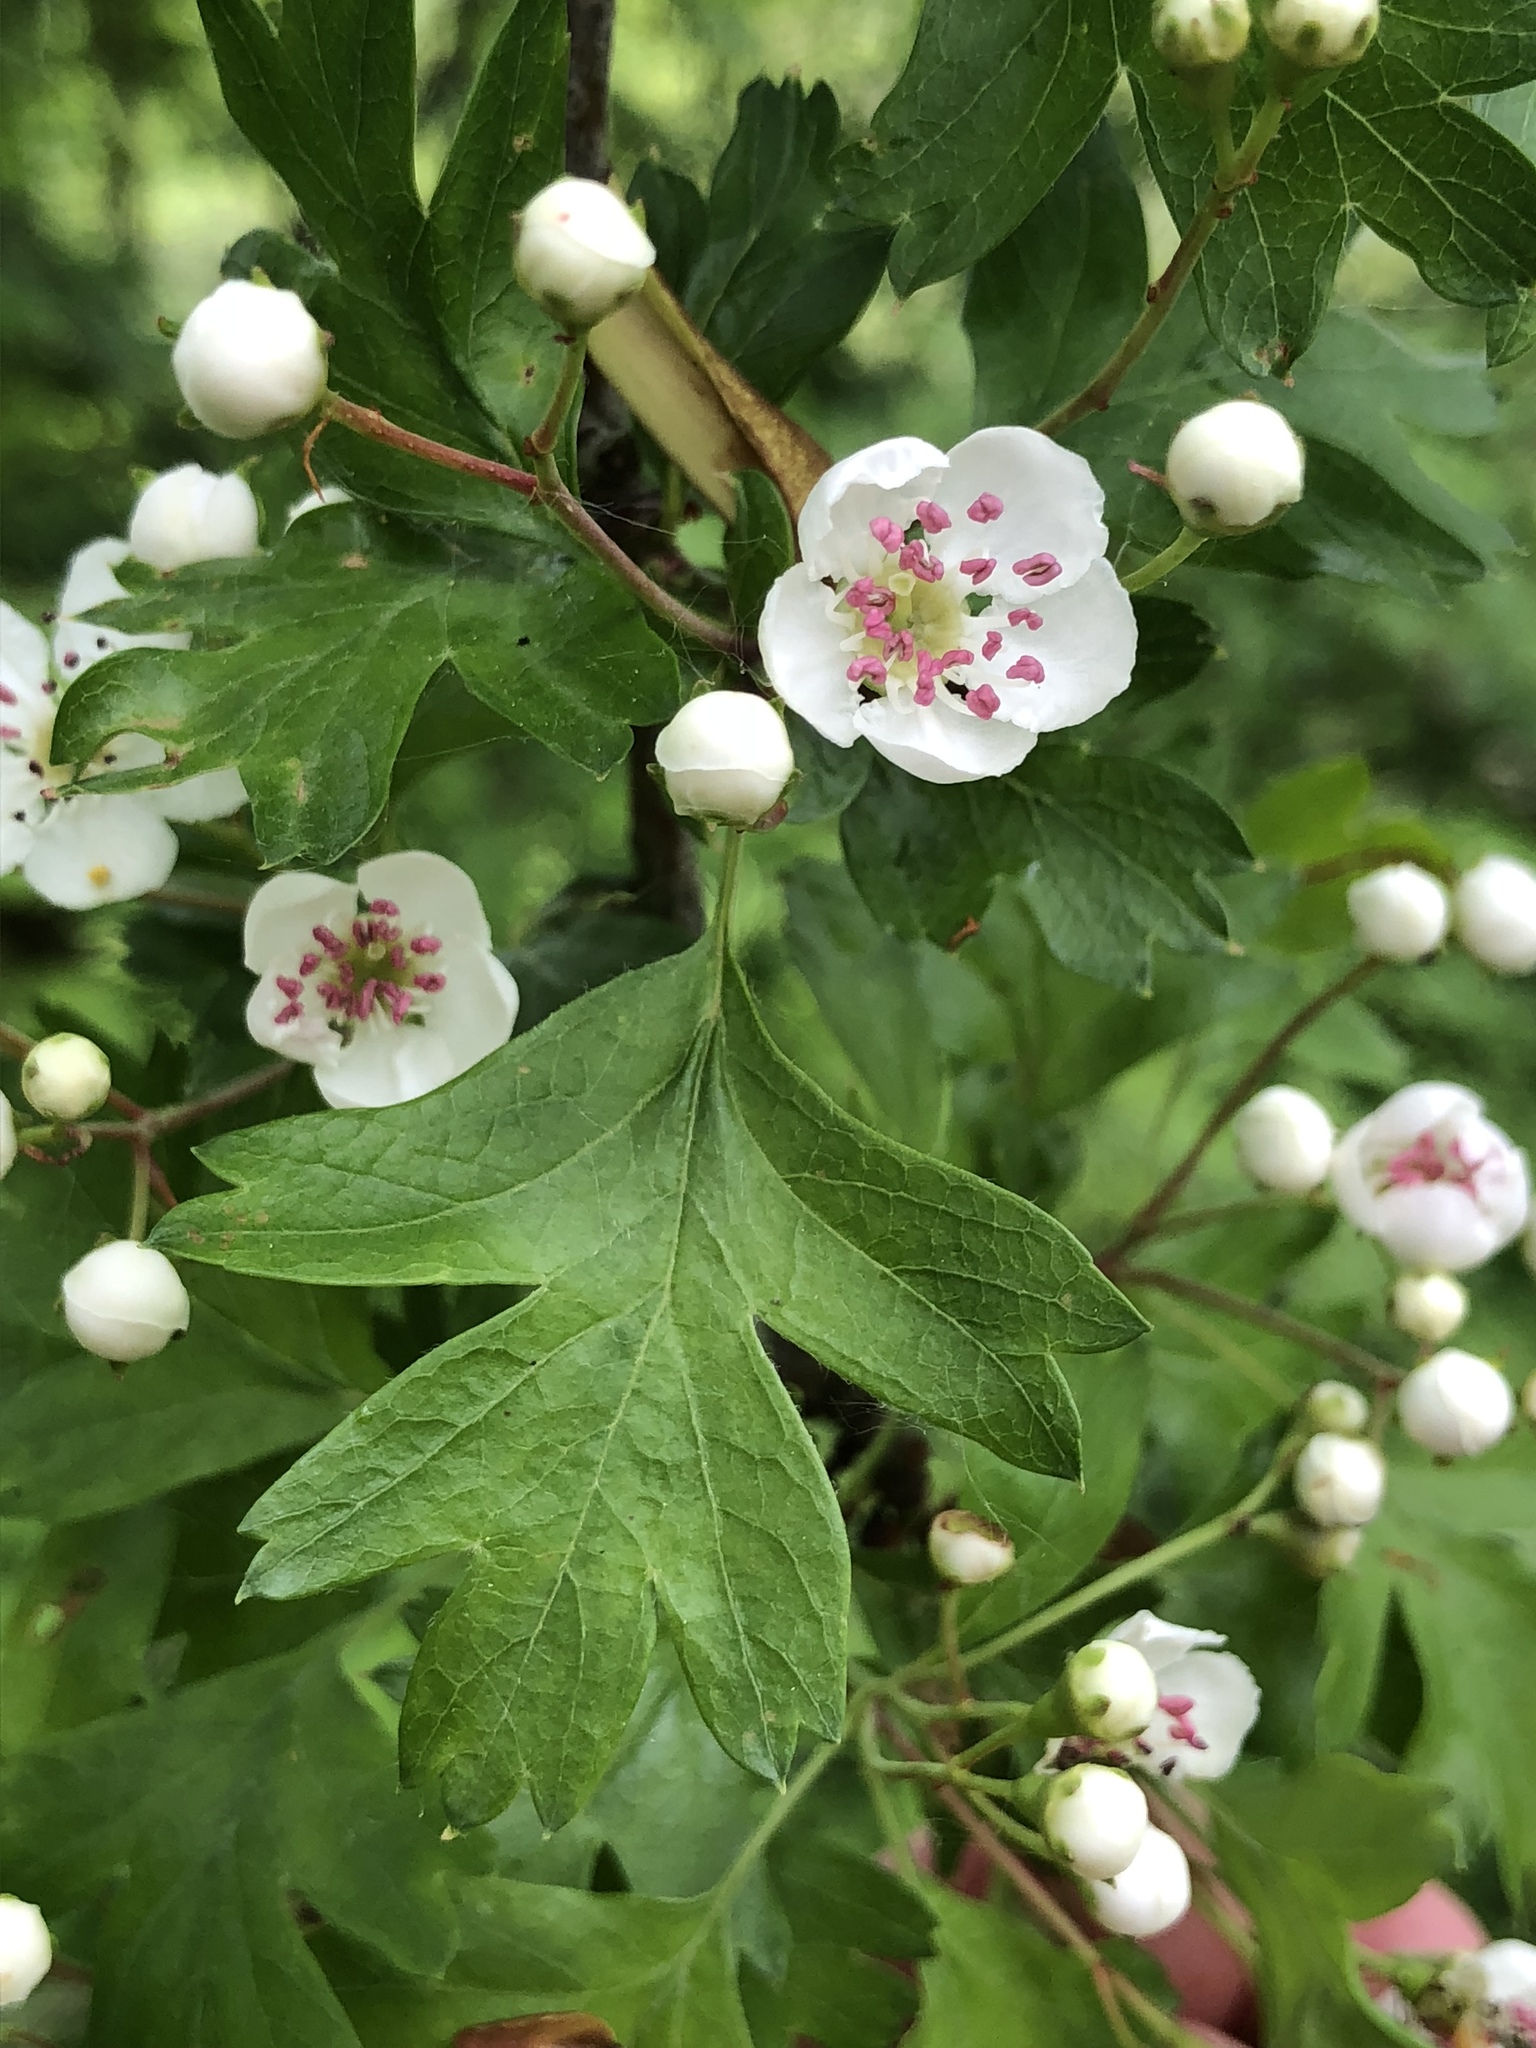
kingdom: Plantae
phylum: Tracheophyta
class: Magnoliopsida
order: Rosales
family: Rosaceae
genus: Crataegus
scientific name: Crataegus monogyna
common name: Hawthorn
